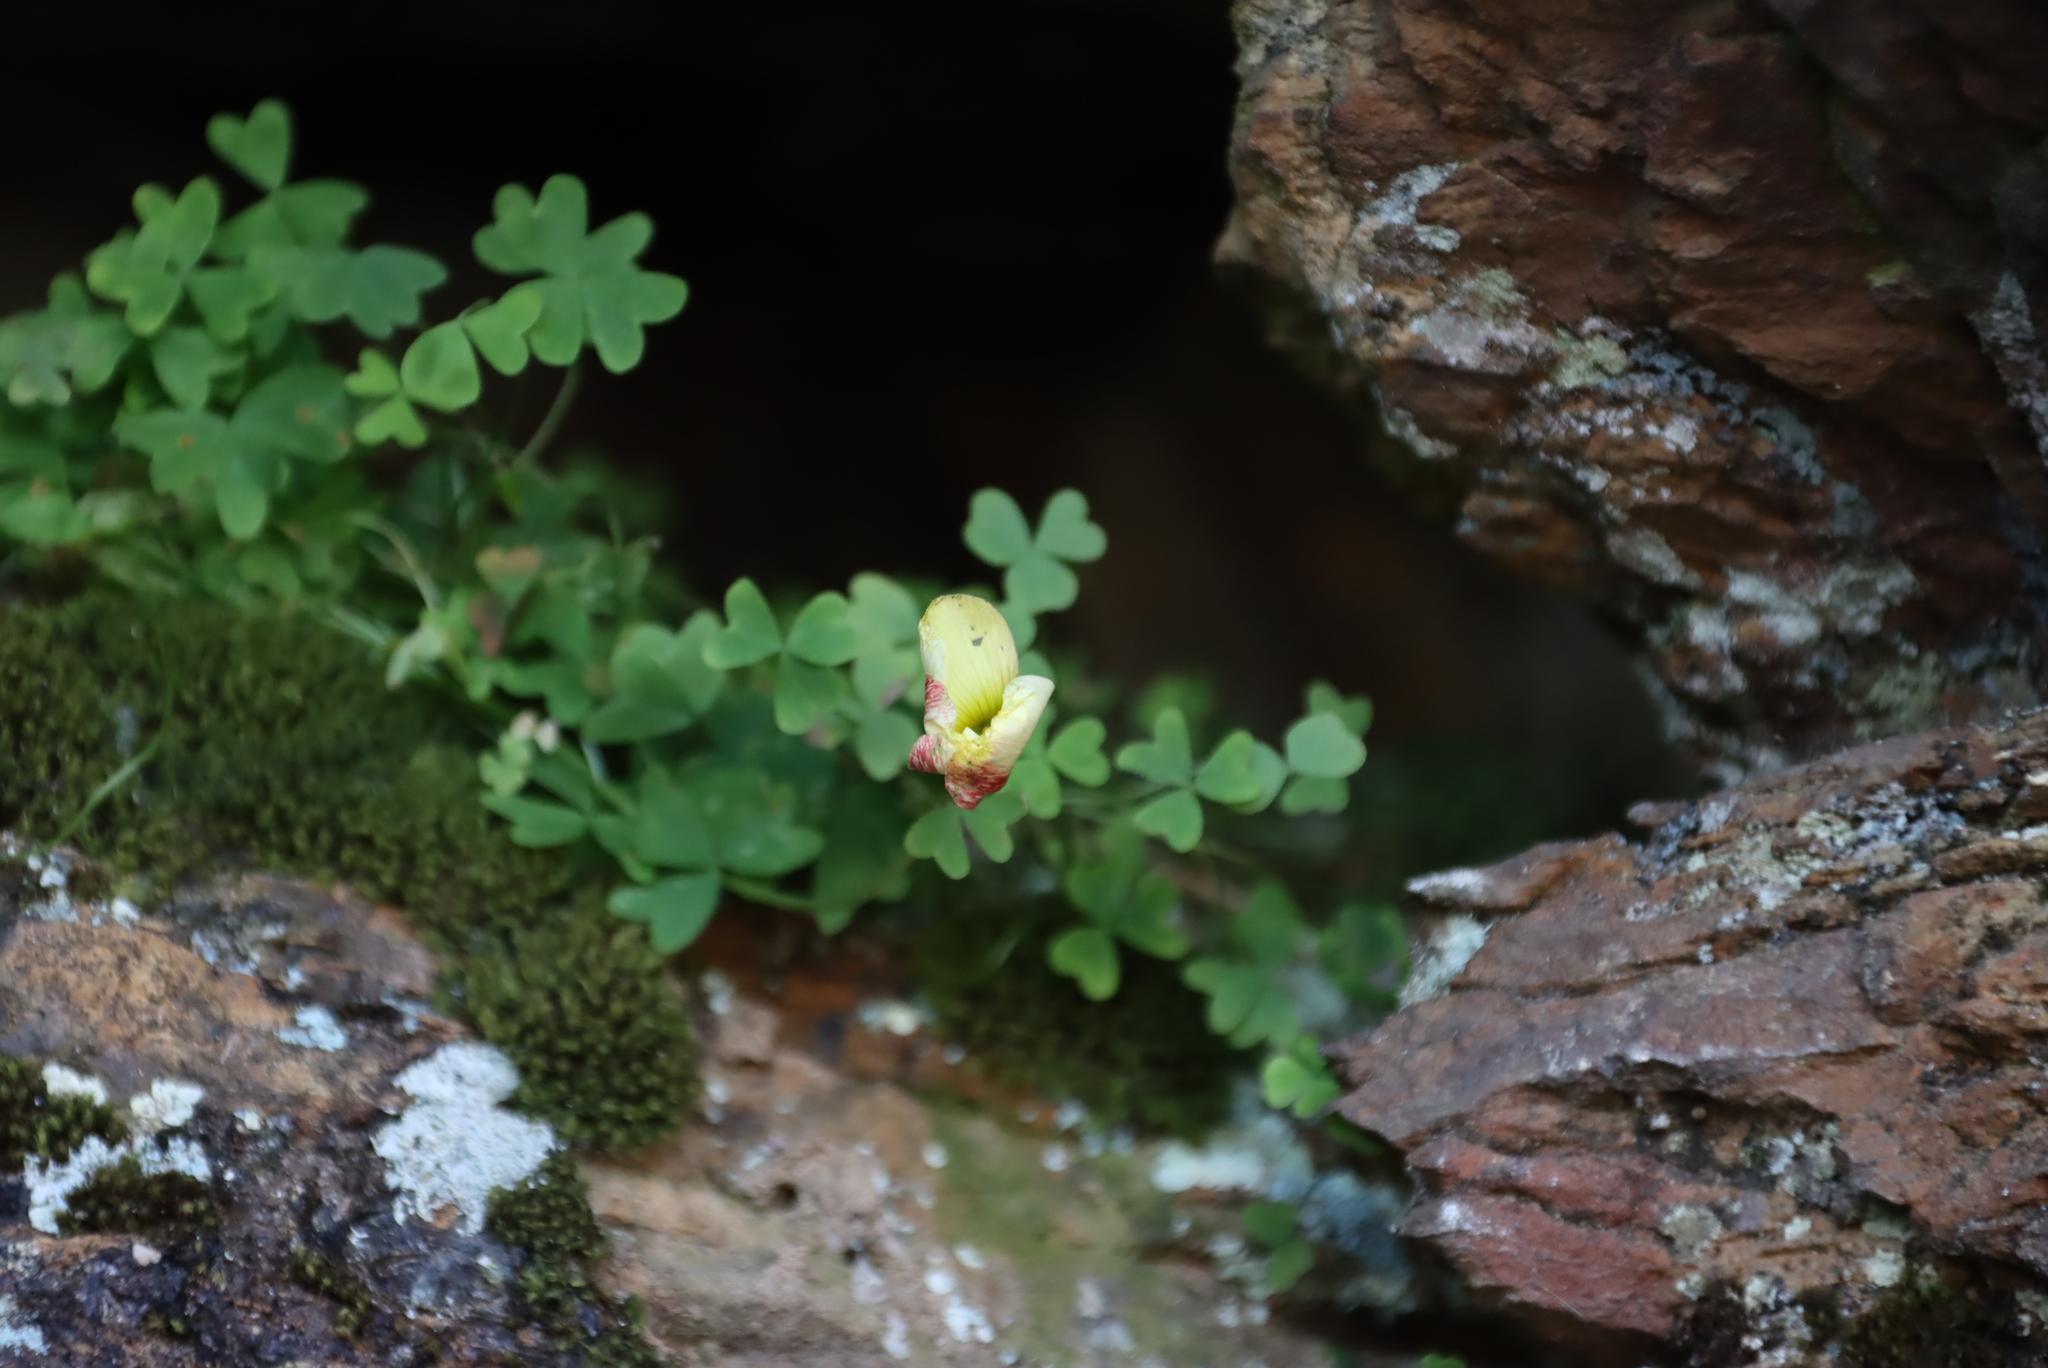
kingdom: Plantae
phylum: Tracheophyta
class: Magnoliopsida
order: Oxalidales
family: Oxalidaceae
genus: Oxalis
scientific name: Oxalis obtusa
